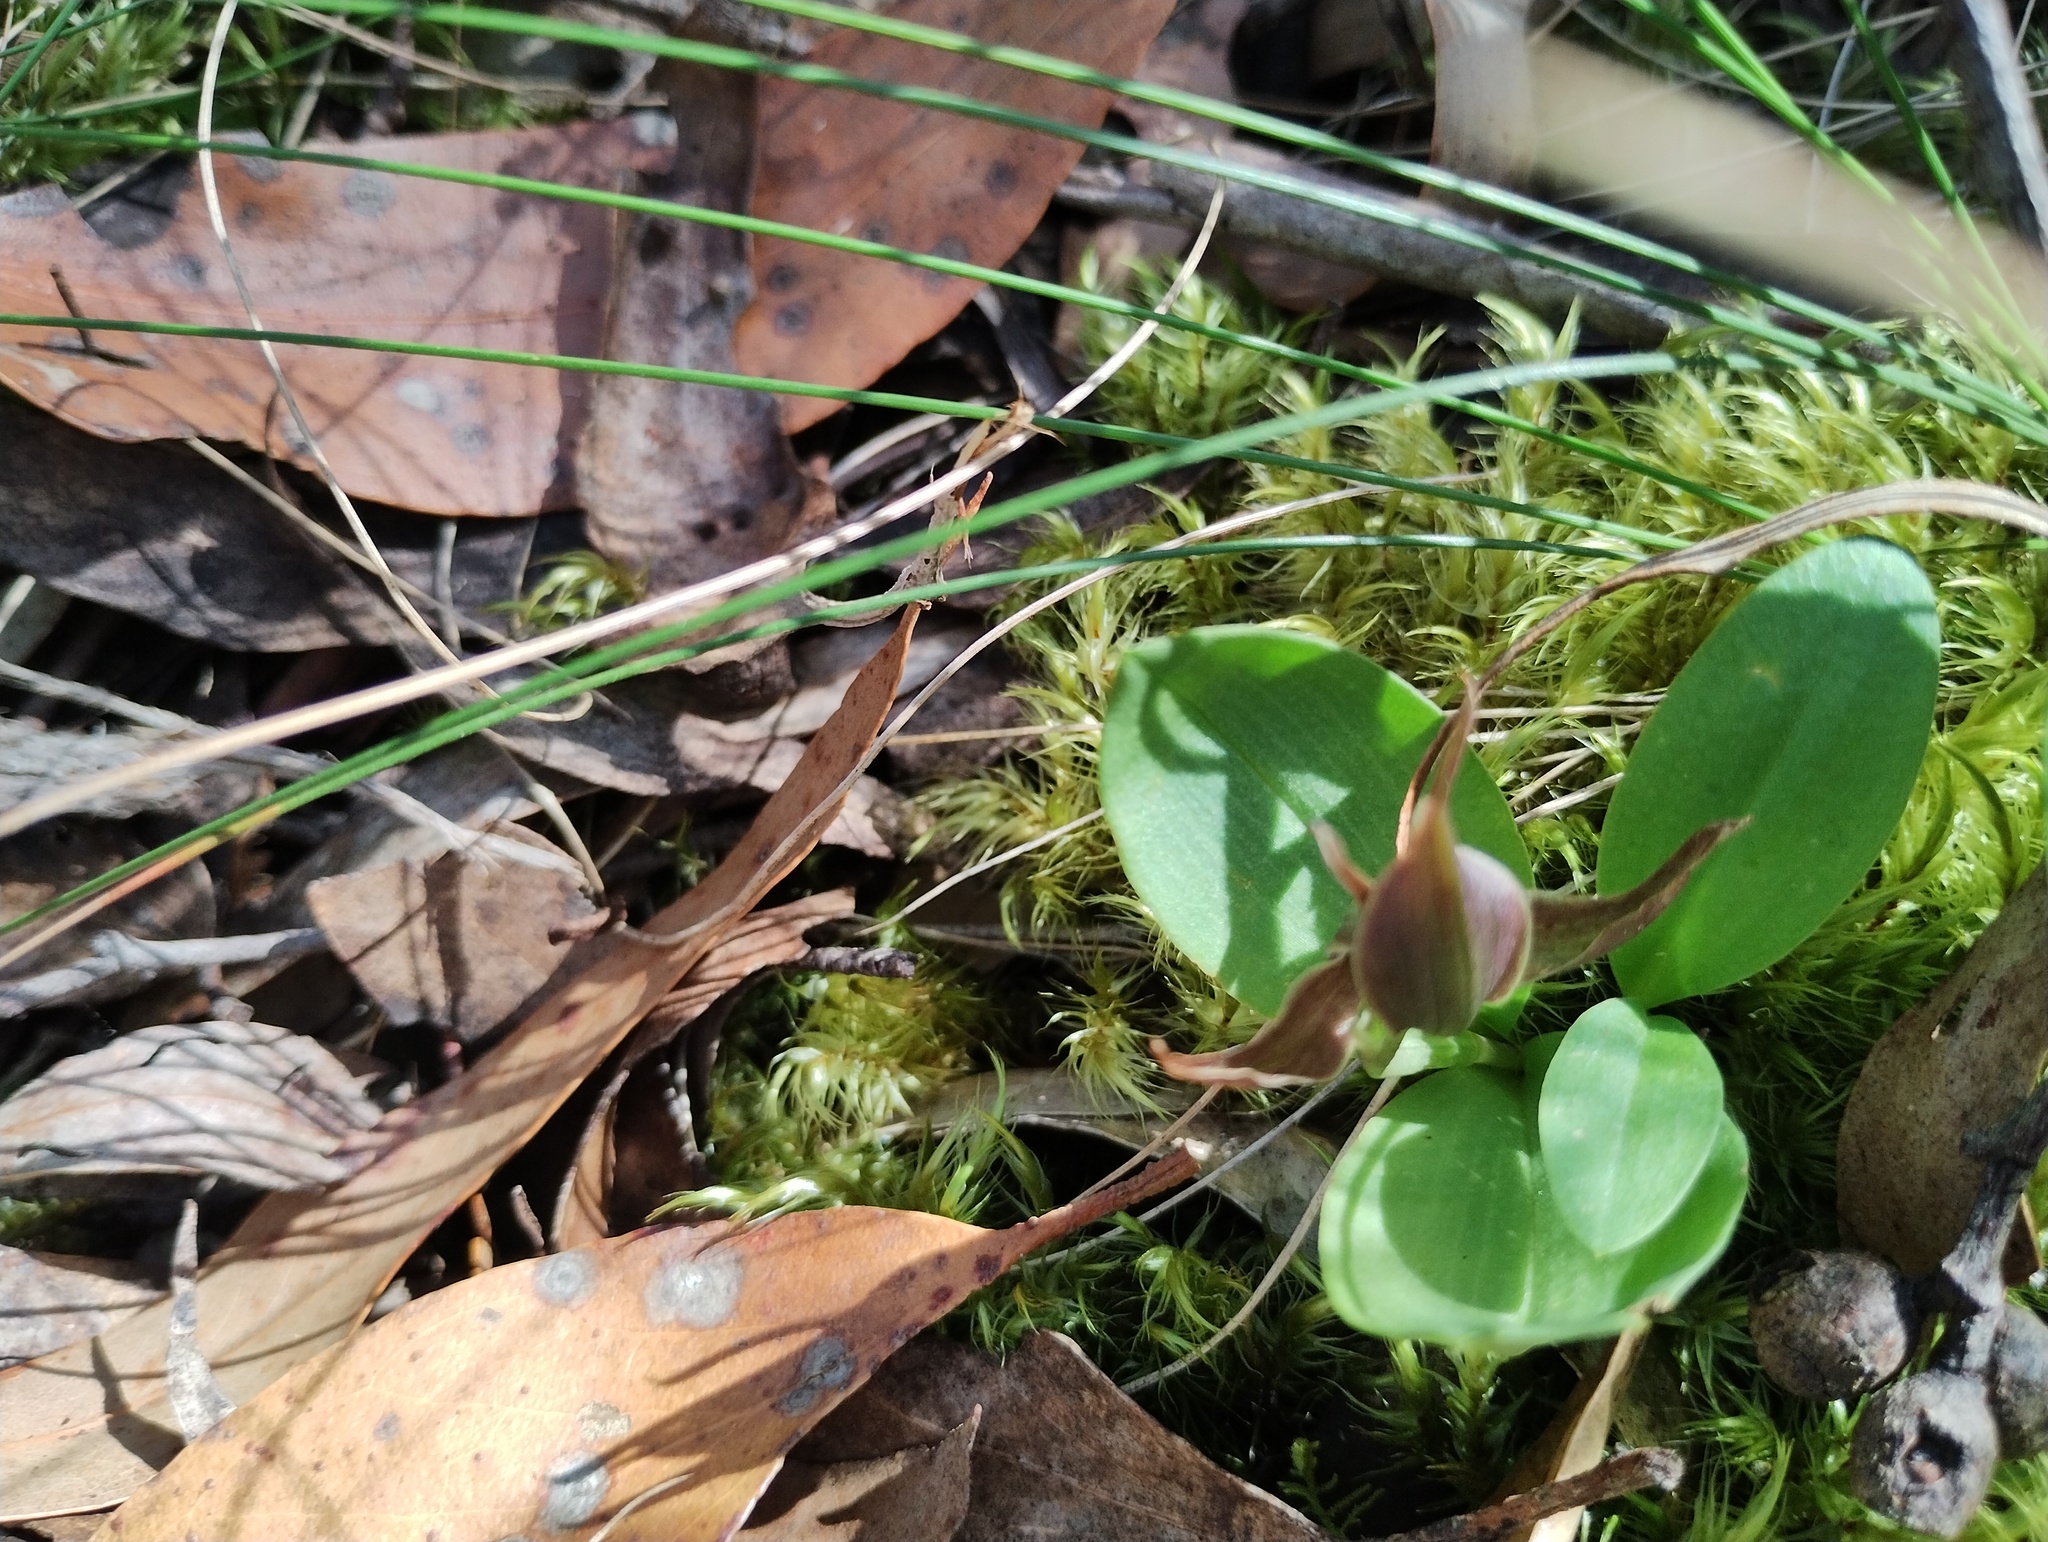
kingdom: Plantae
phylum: Tracheophyta
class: Liliopsida
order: Asparagales
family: Orchidaceae
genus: Chiloglottis
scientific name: Chiloglottis valida
